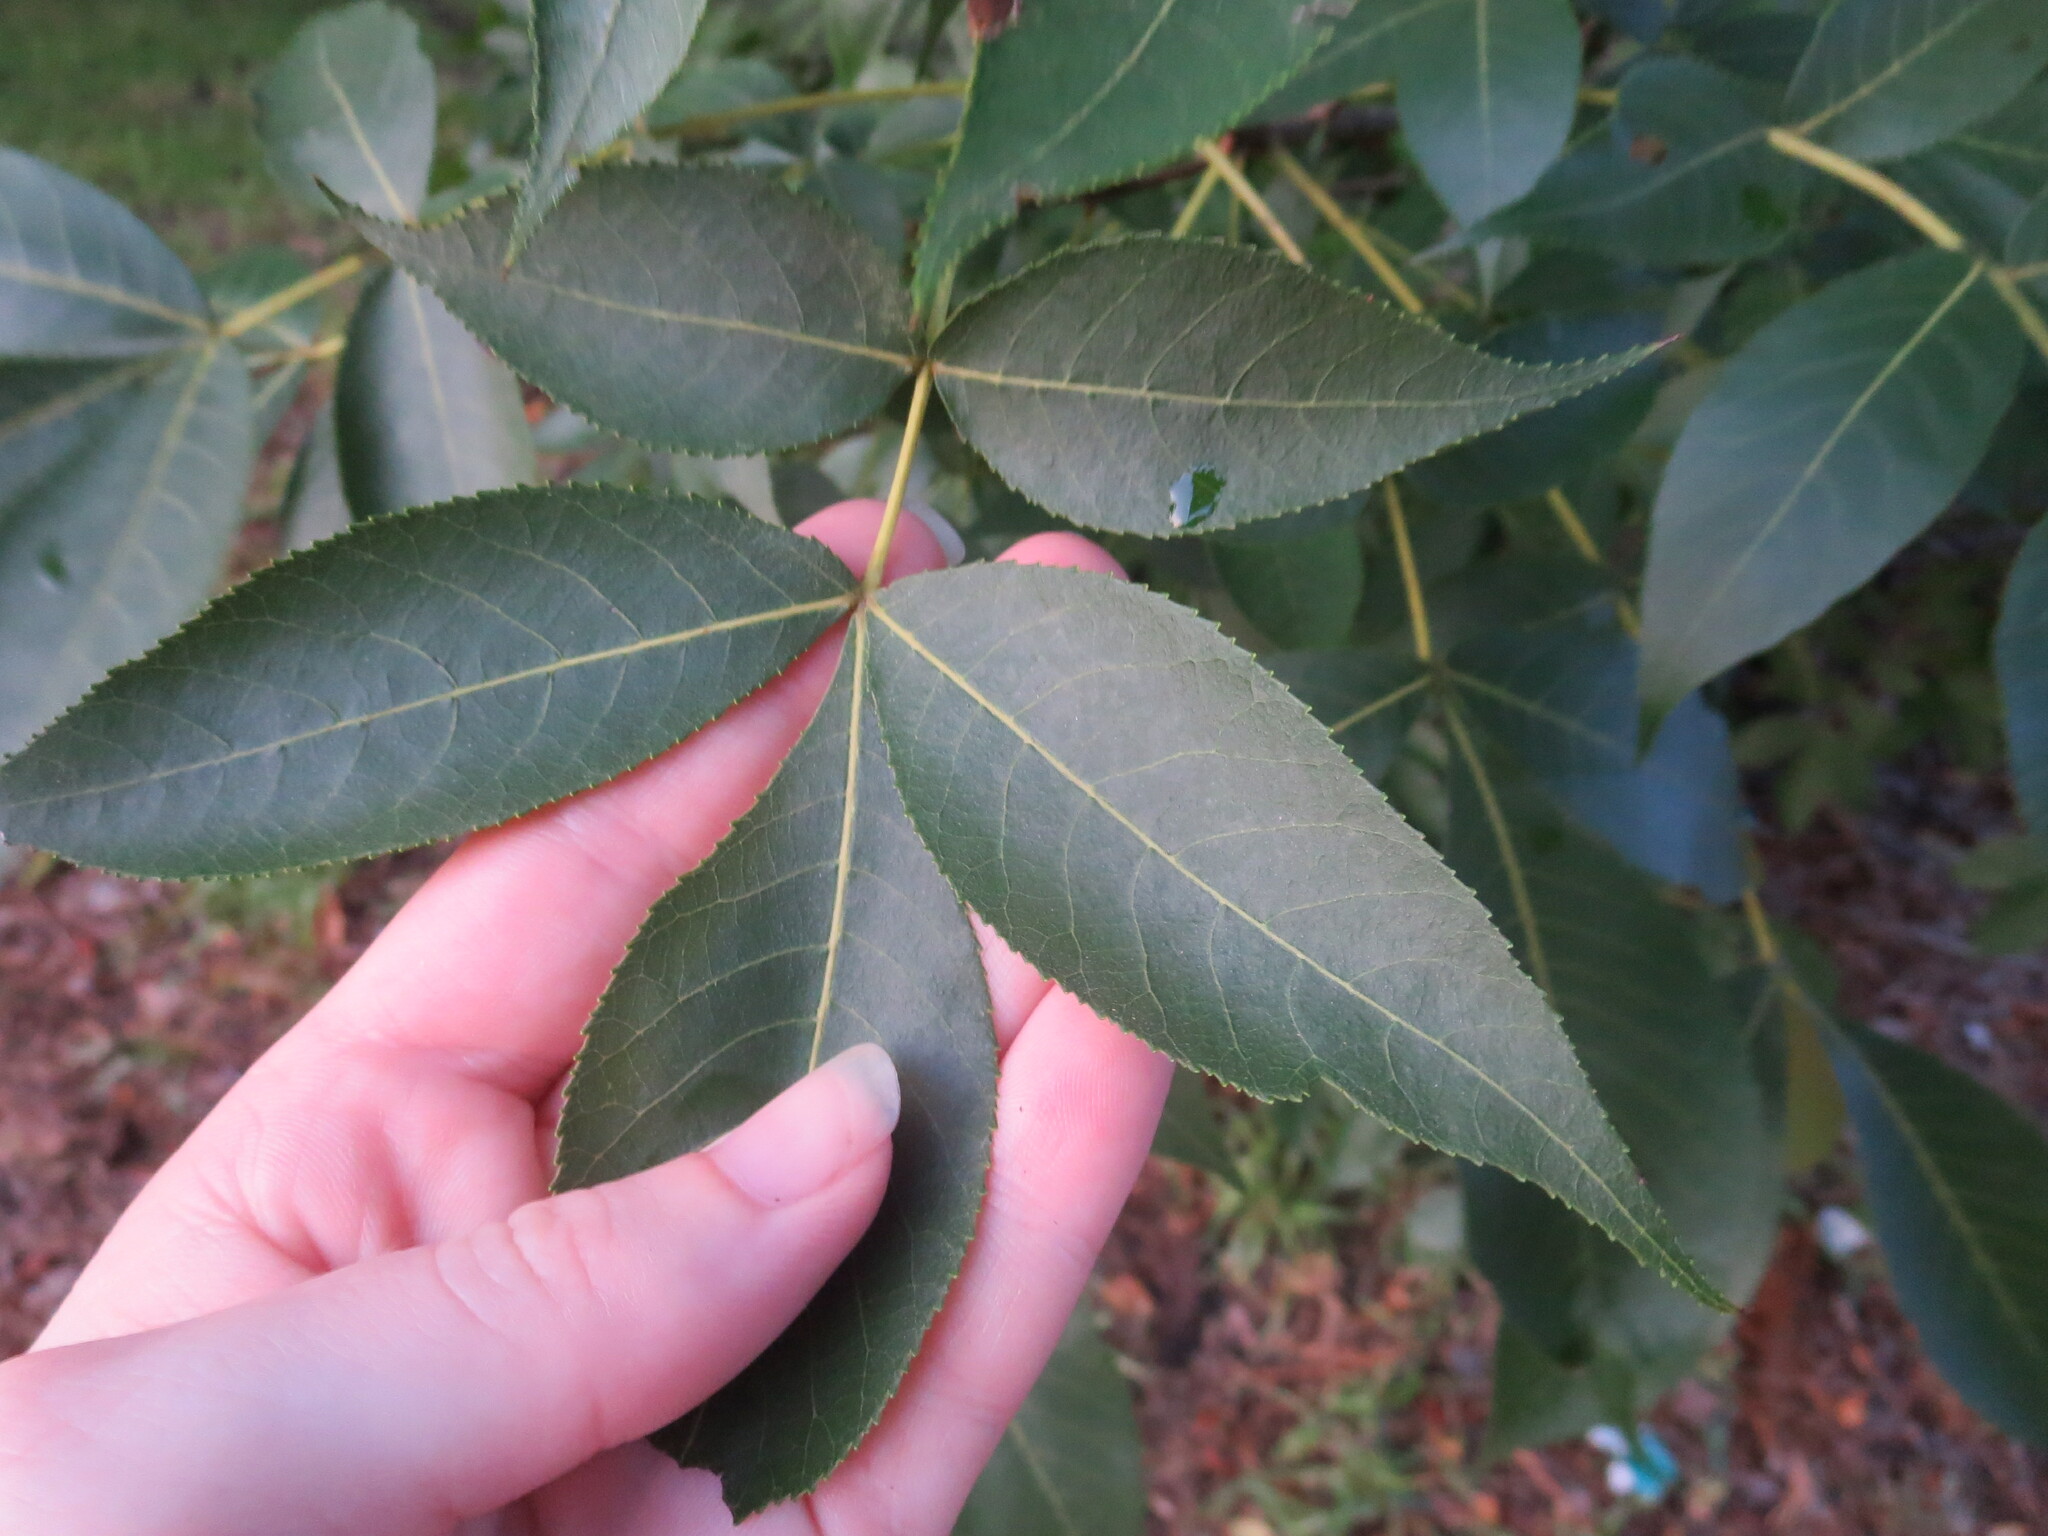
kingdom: Plantae
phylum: Tracheophyta
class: Magnoliopsida
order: Fagales
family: Juglandaceae
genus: Carya
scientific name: Carya glabra
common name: Pignut hickory
